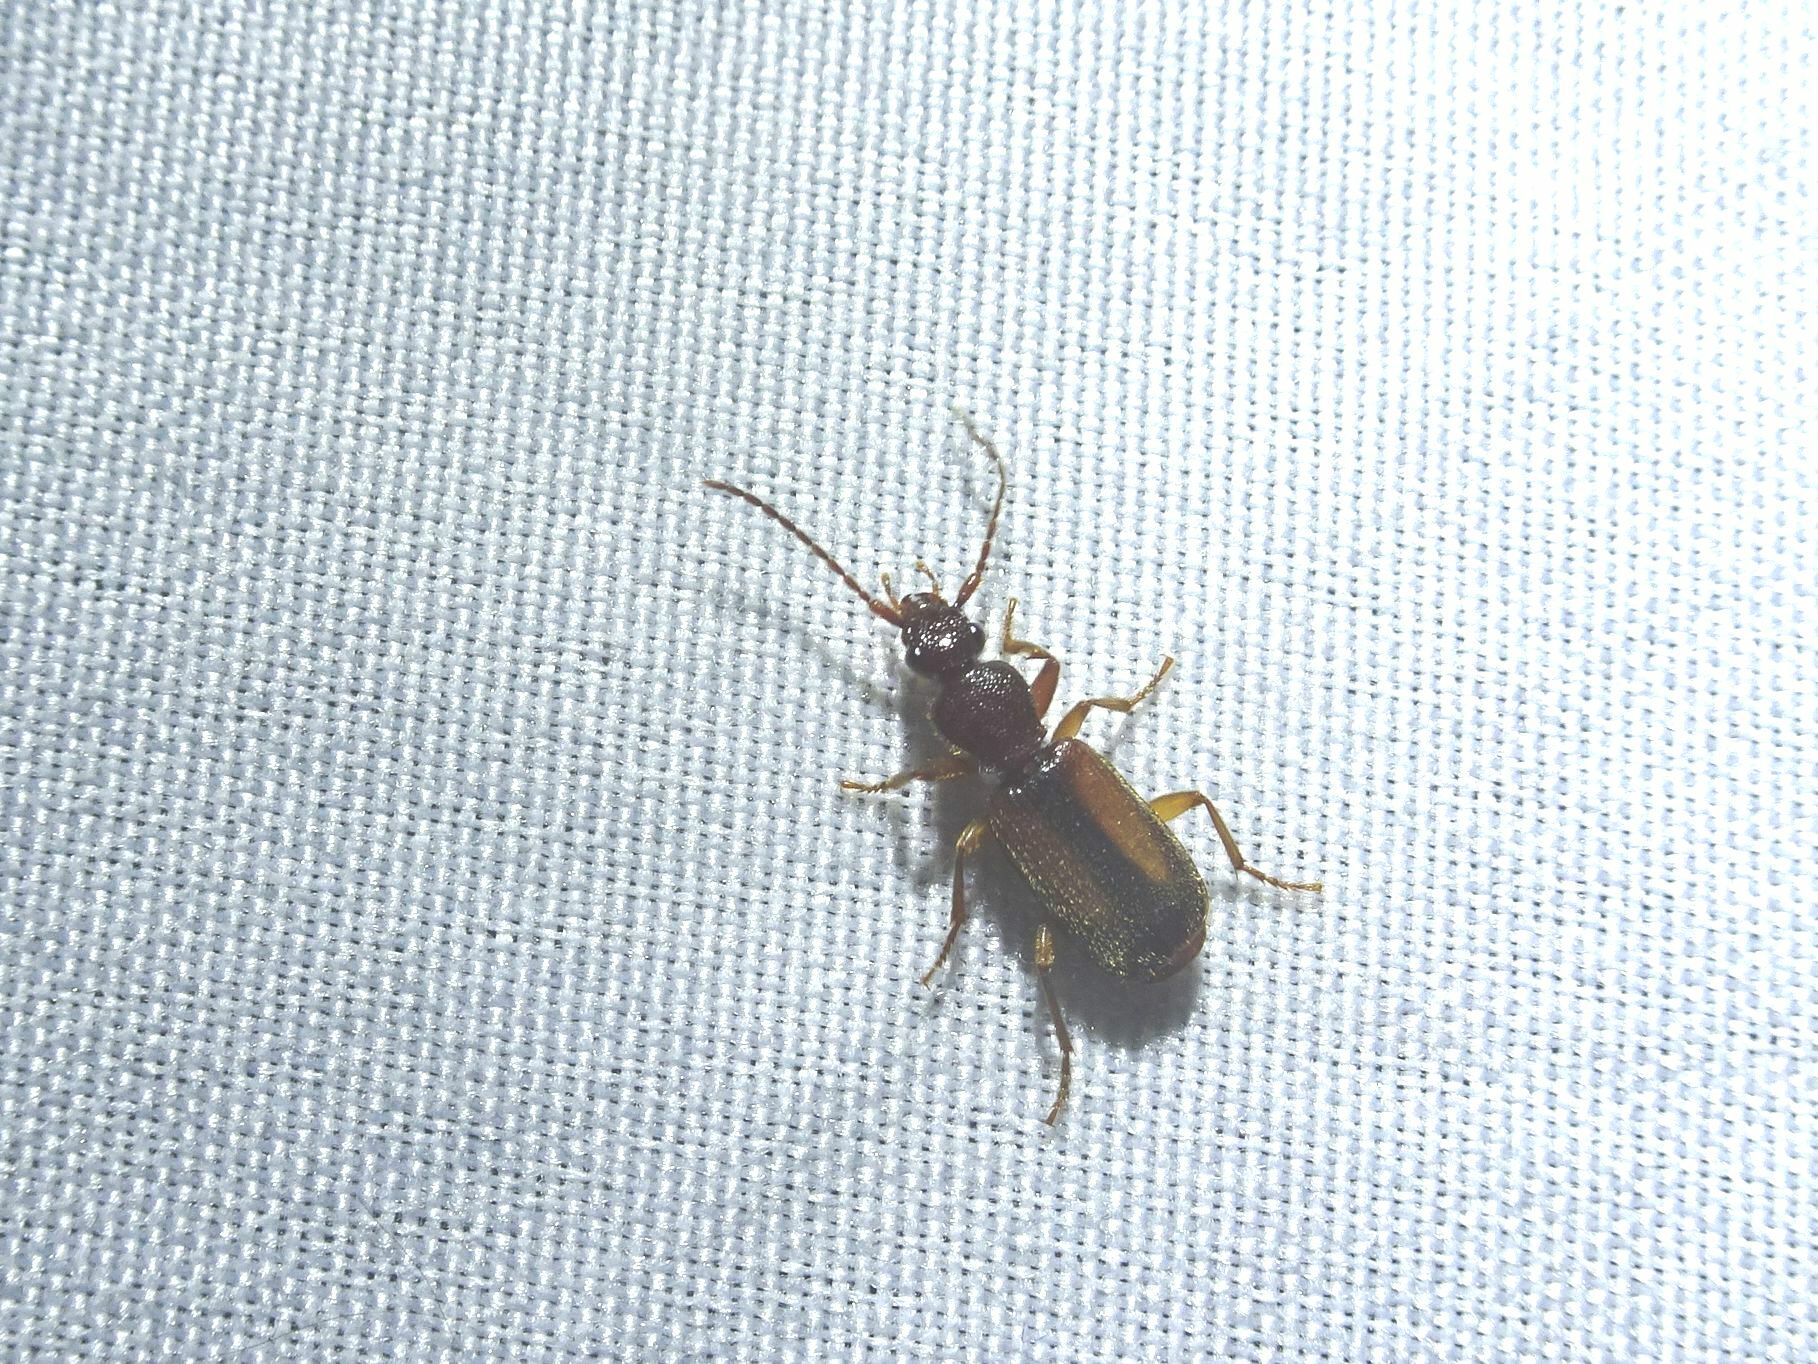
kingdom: Animalia
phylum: Arthropoda
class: Insecta
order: Coleoptera
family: Carabidae
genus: Polistichus
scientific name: Polistichus connexus
